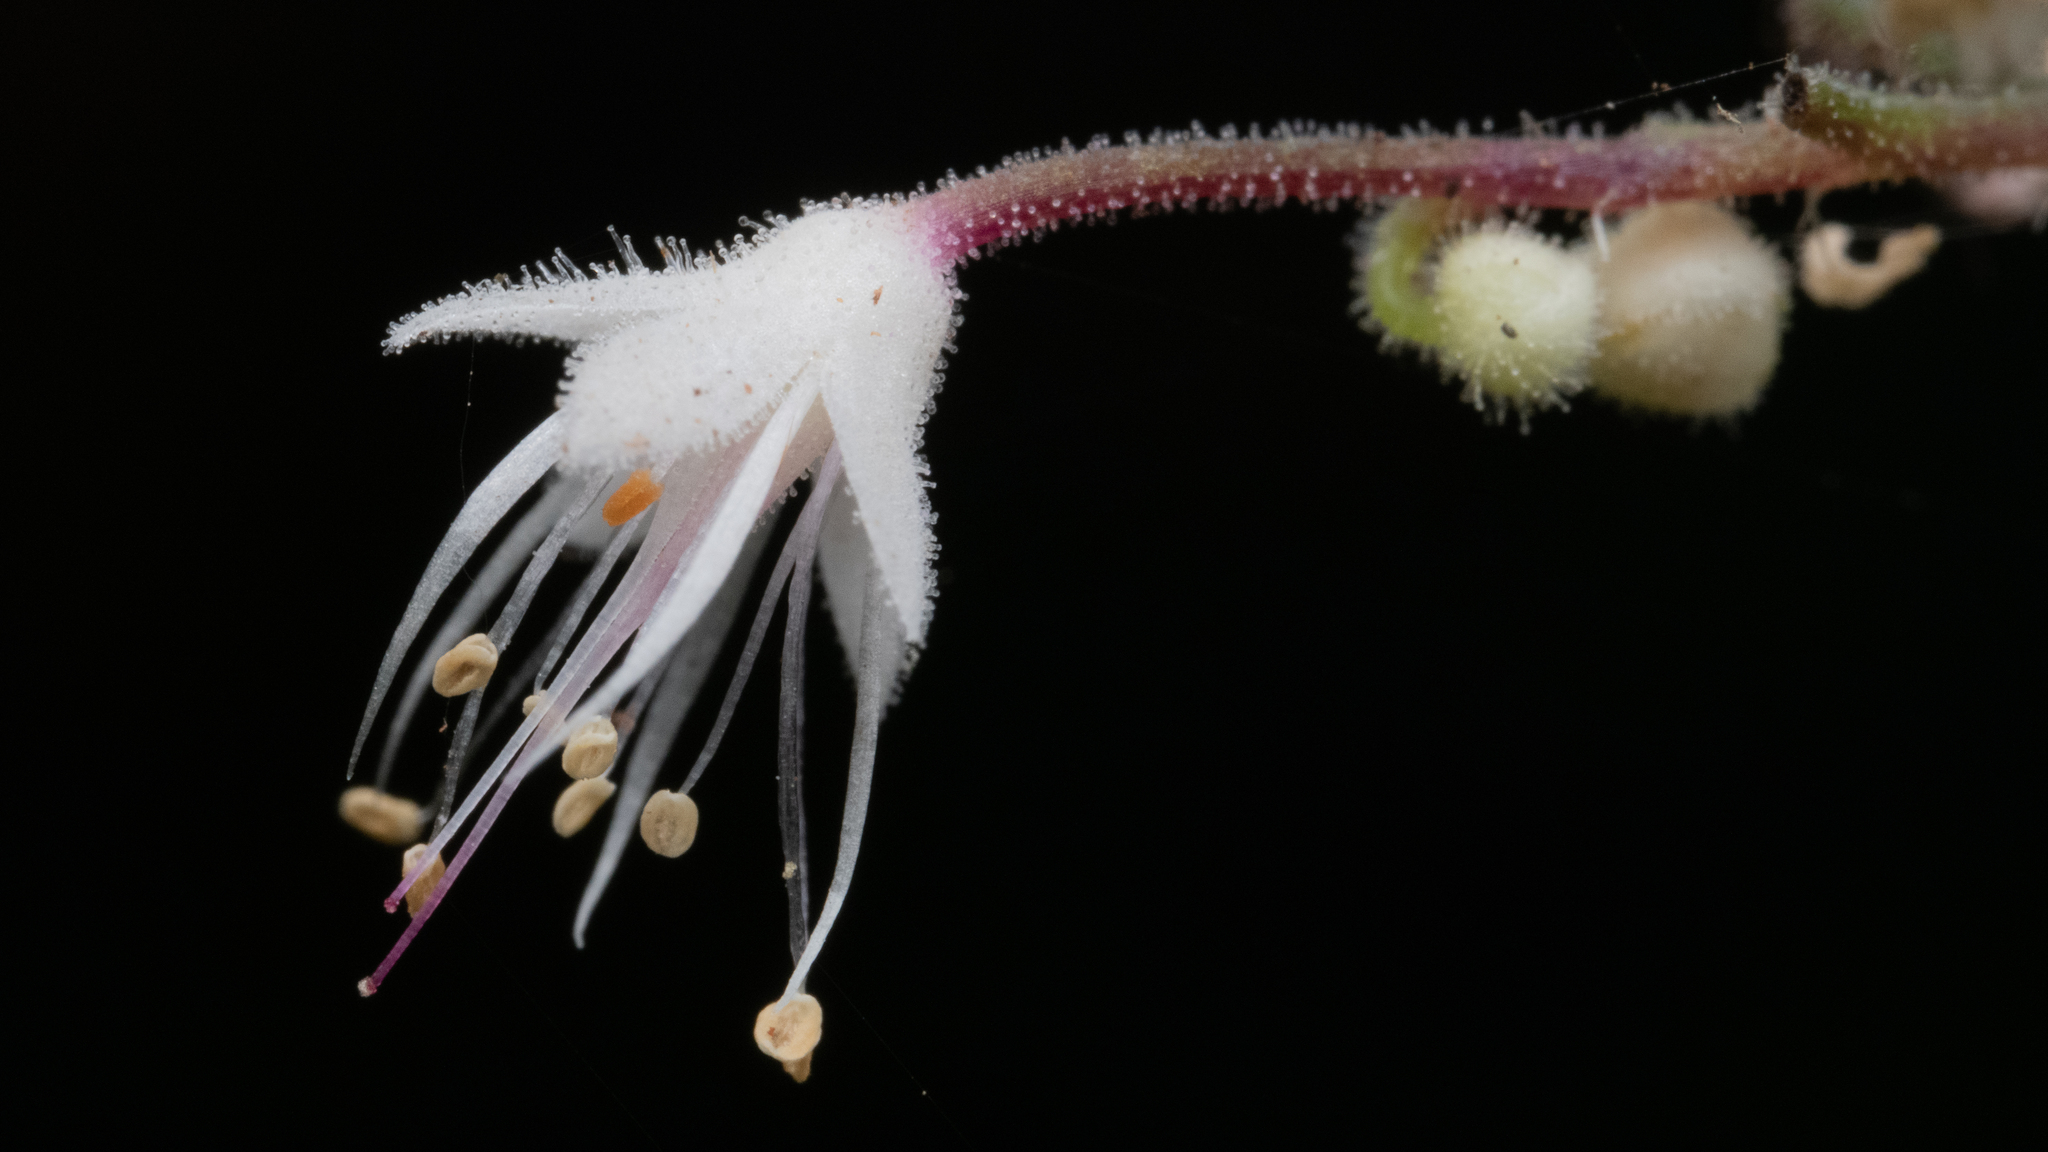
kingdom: Plantae
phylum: Tracheophyta
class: Magnoliopsida
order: Saxifragales
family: Saxifragaceae
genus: Tiarella
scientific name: Tiarella trifoliata
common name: Sugar-scoop
